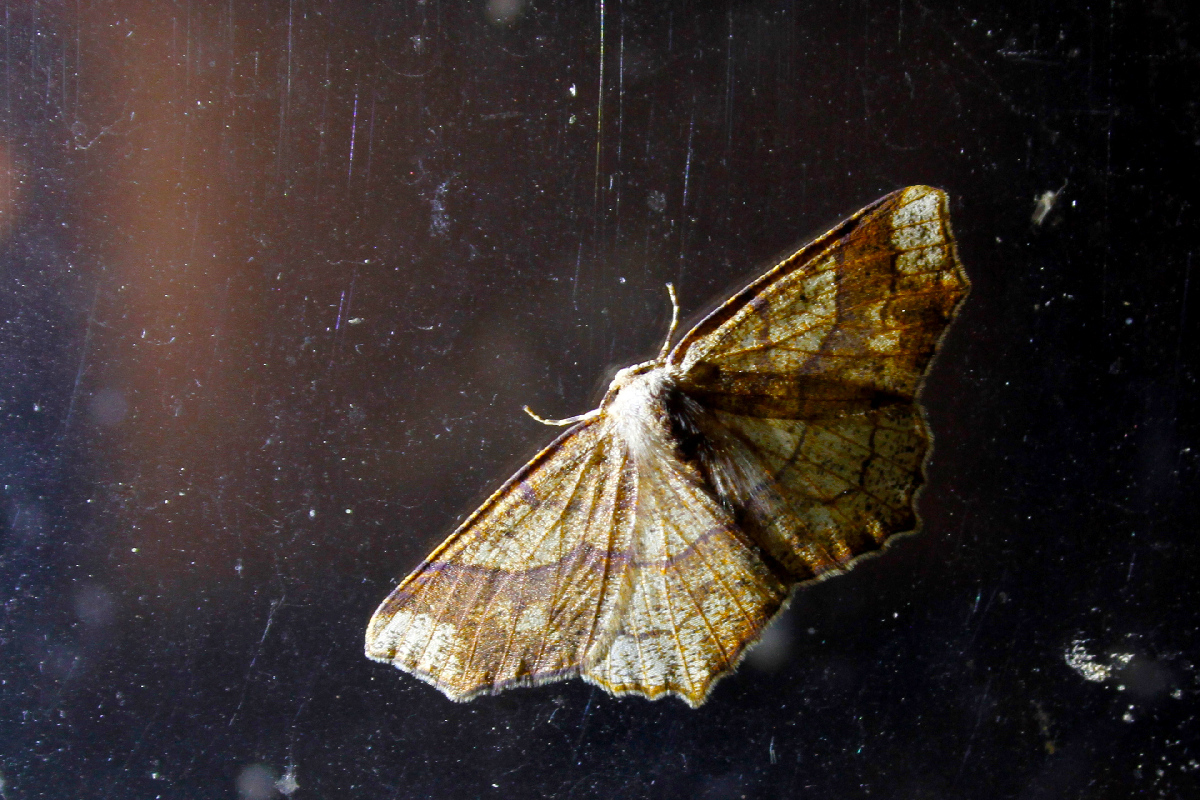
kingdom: Animalia
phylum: Arthropoda
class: Insecta
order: Lepidoptera
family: Geometridae
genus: Besma
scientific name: Besma quercivoraria
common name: Oak besma
